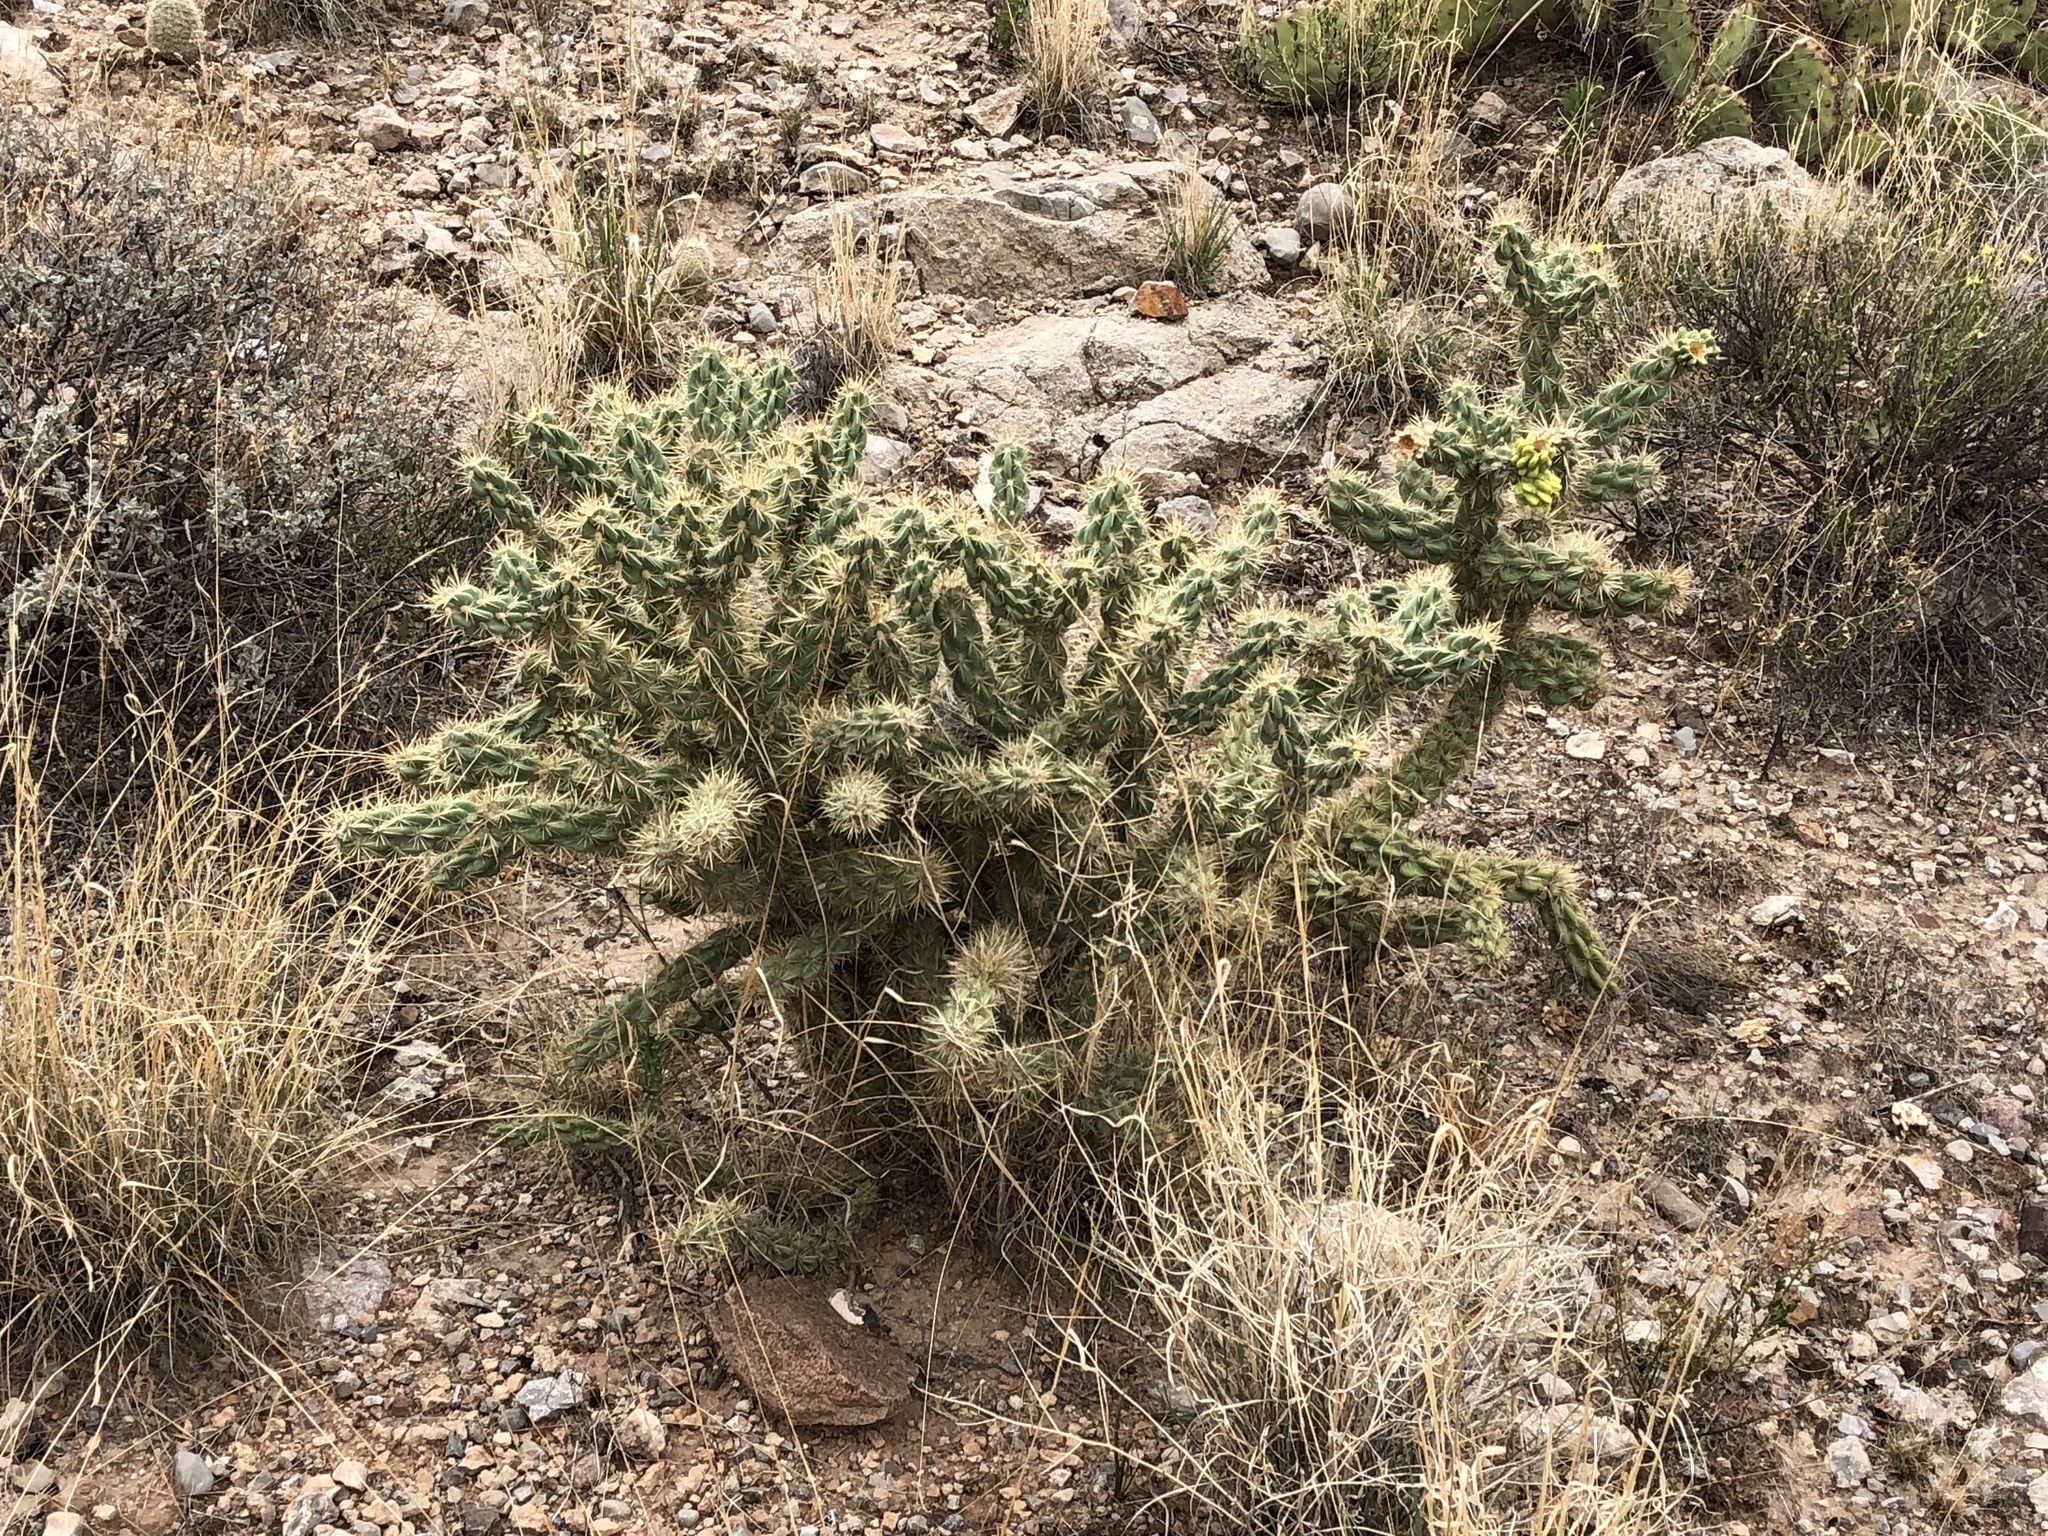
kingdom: Plantae
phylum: Tracheophyta
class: Magnoliopsida
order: Caryophyllales
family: Cactaceae
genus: Cylindropuntia
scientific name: Cylindropuntia imbricata
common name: Candelabrum cactus
